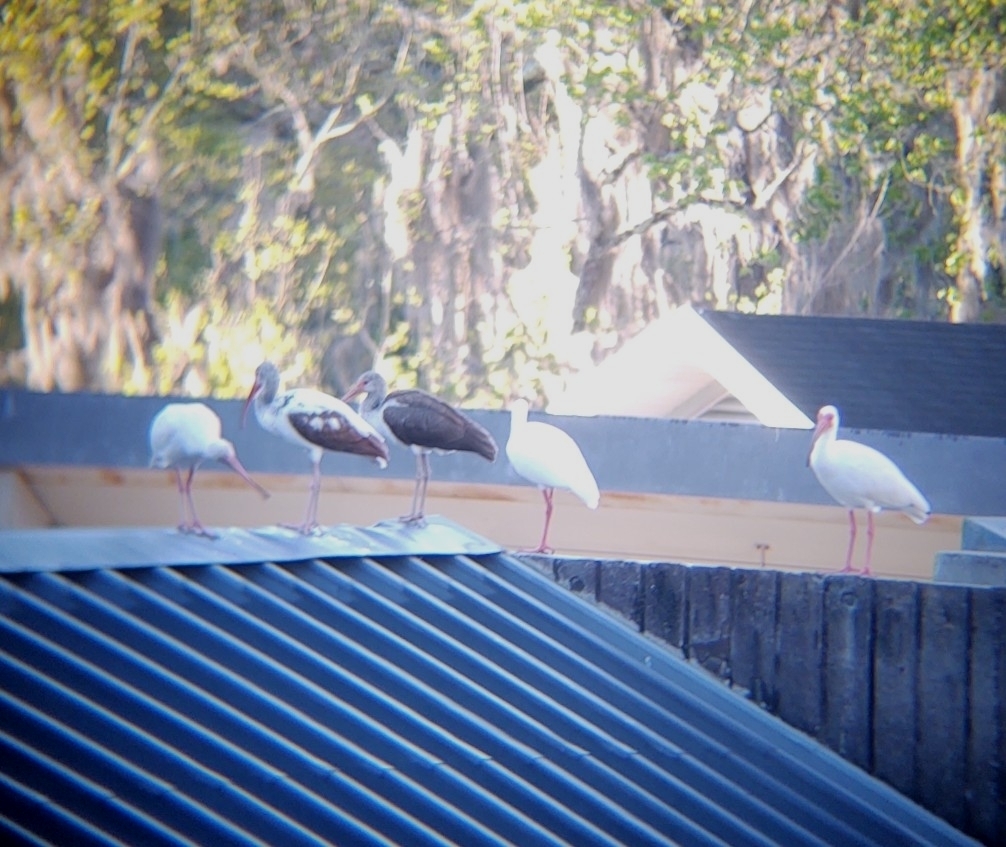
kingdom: Animalia
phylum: Chordata
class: Aves
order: Pelecaniformes
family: Threskiornithidae
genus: Eudocimus
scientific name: Eudocimus albus
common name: White ibis
